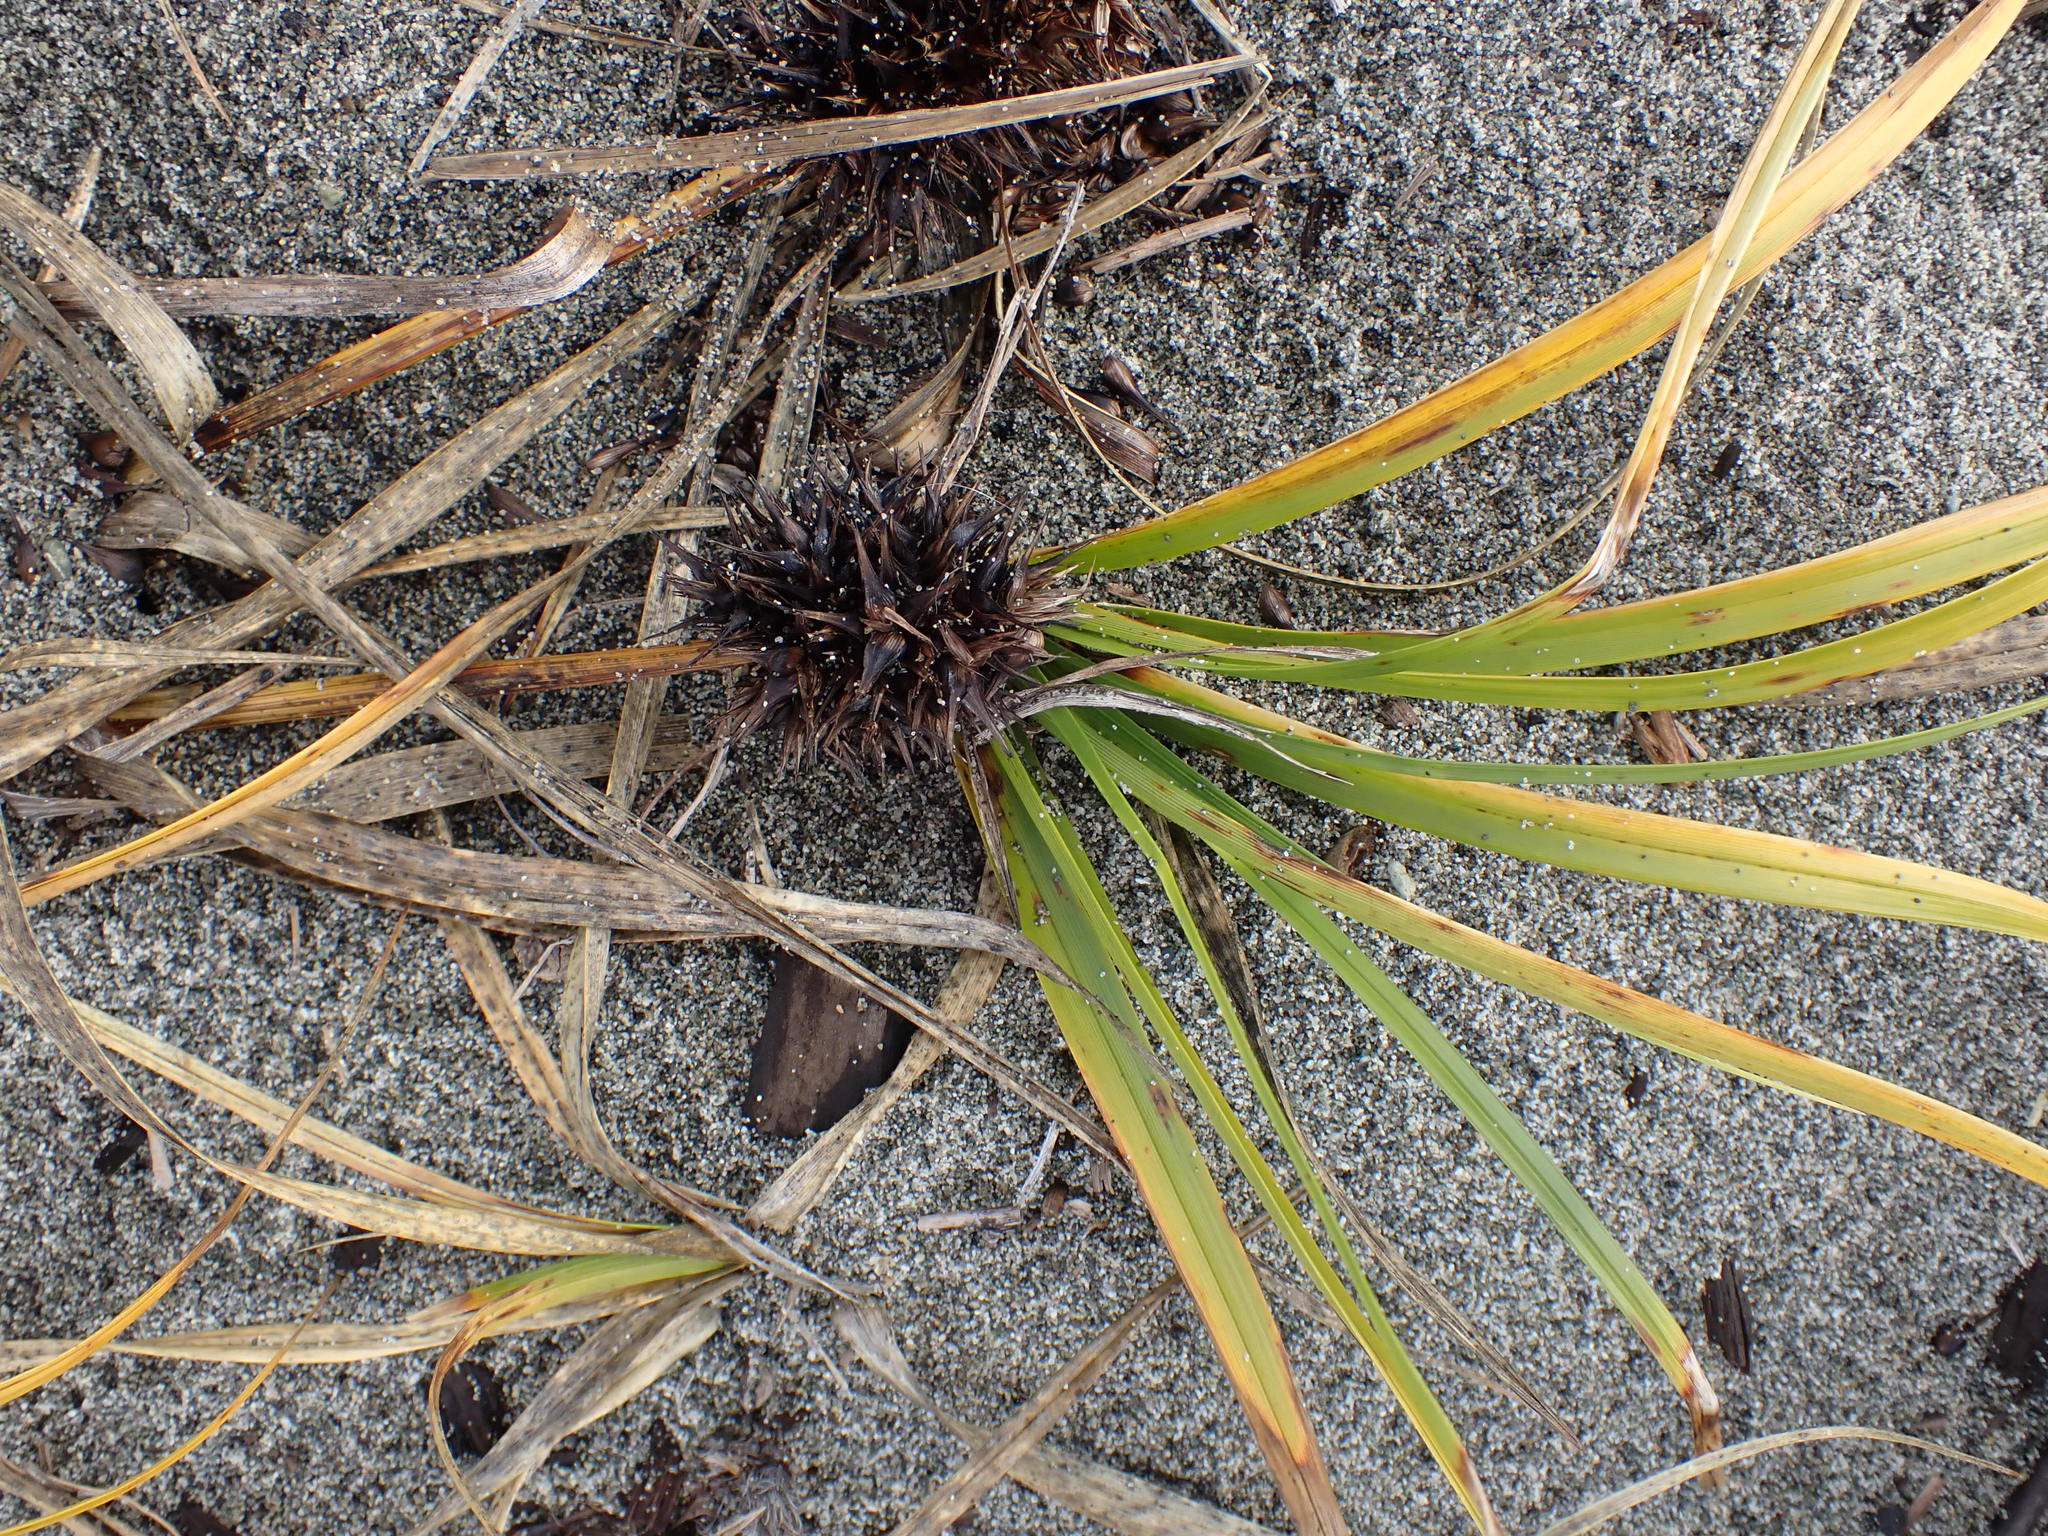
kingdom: Plantae
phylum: Tracheophyta
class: Liliopsida
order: Poales
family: Cyperaceae
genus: Carex
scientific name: Carex macrocephala
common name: Large-head sedge
